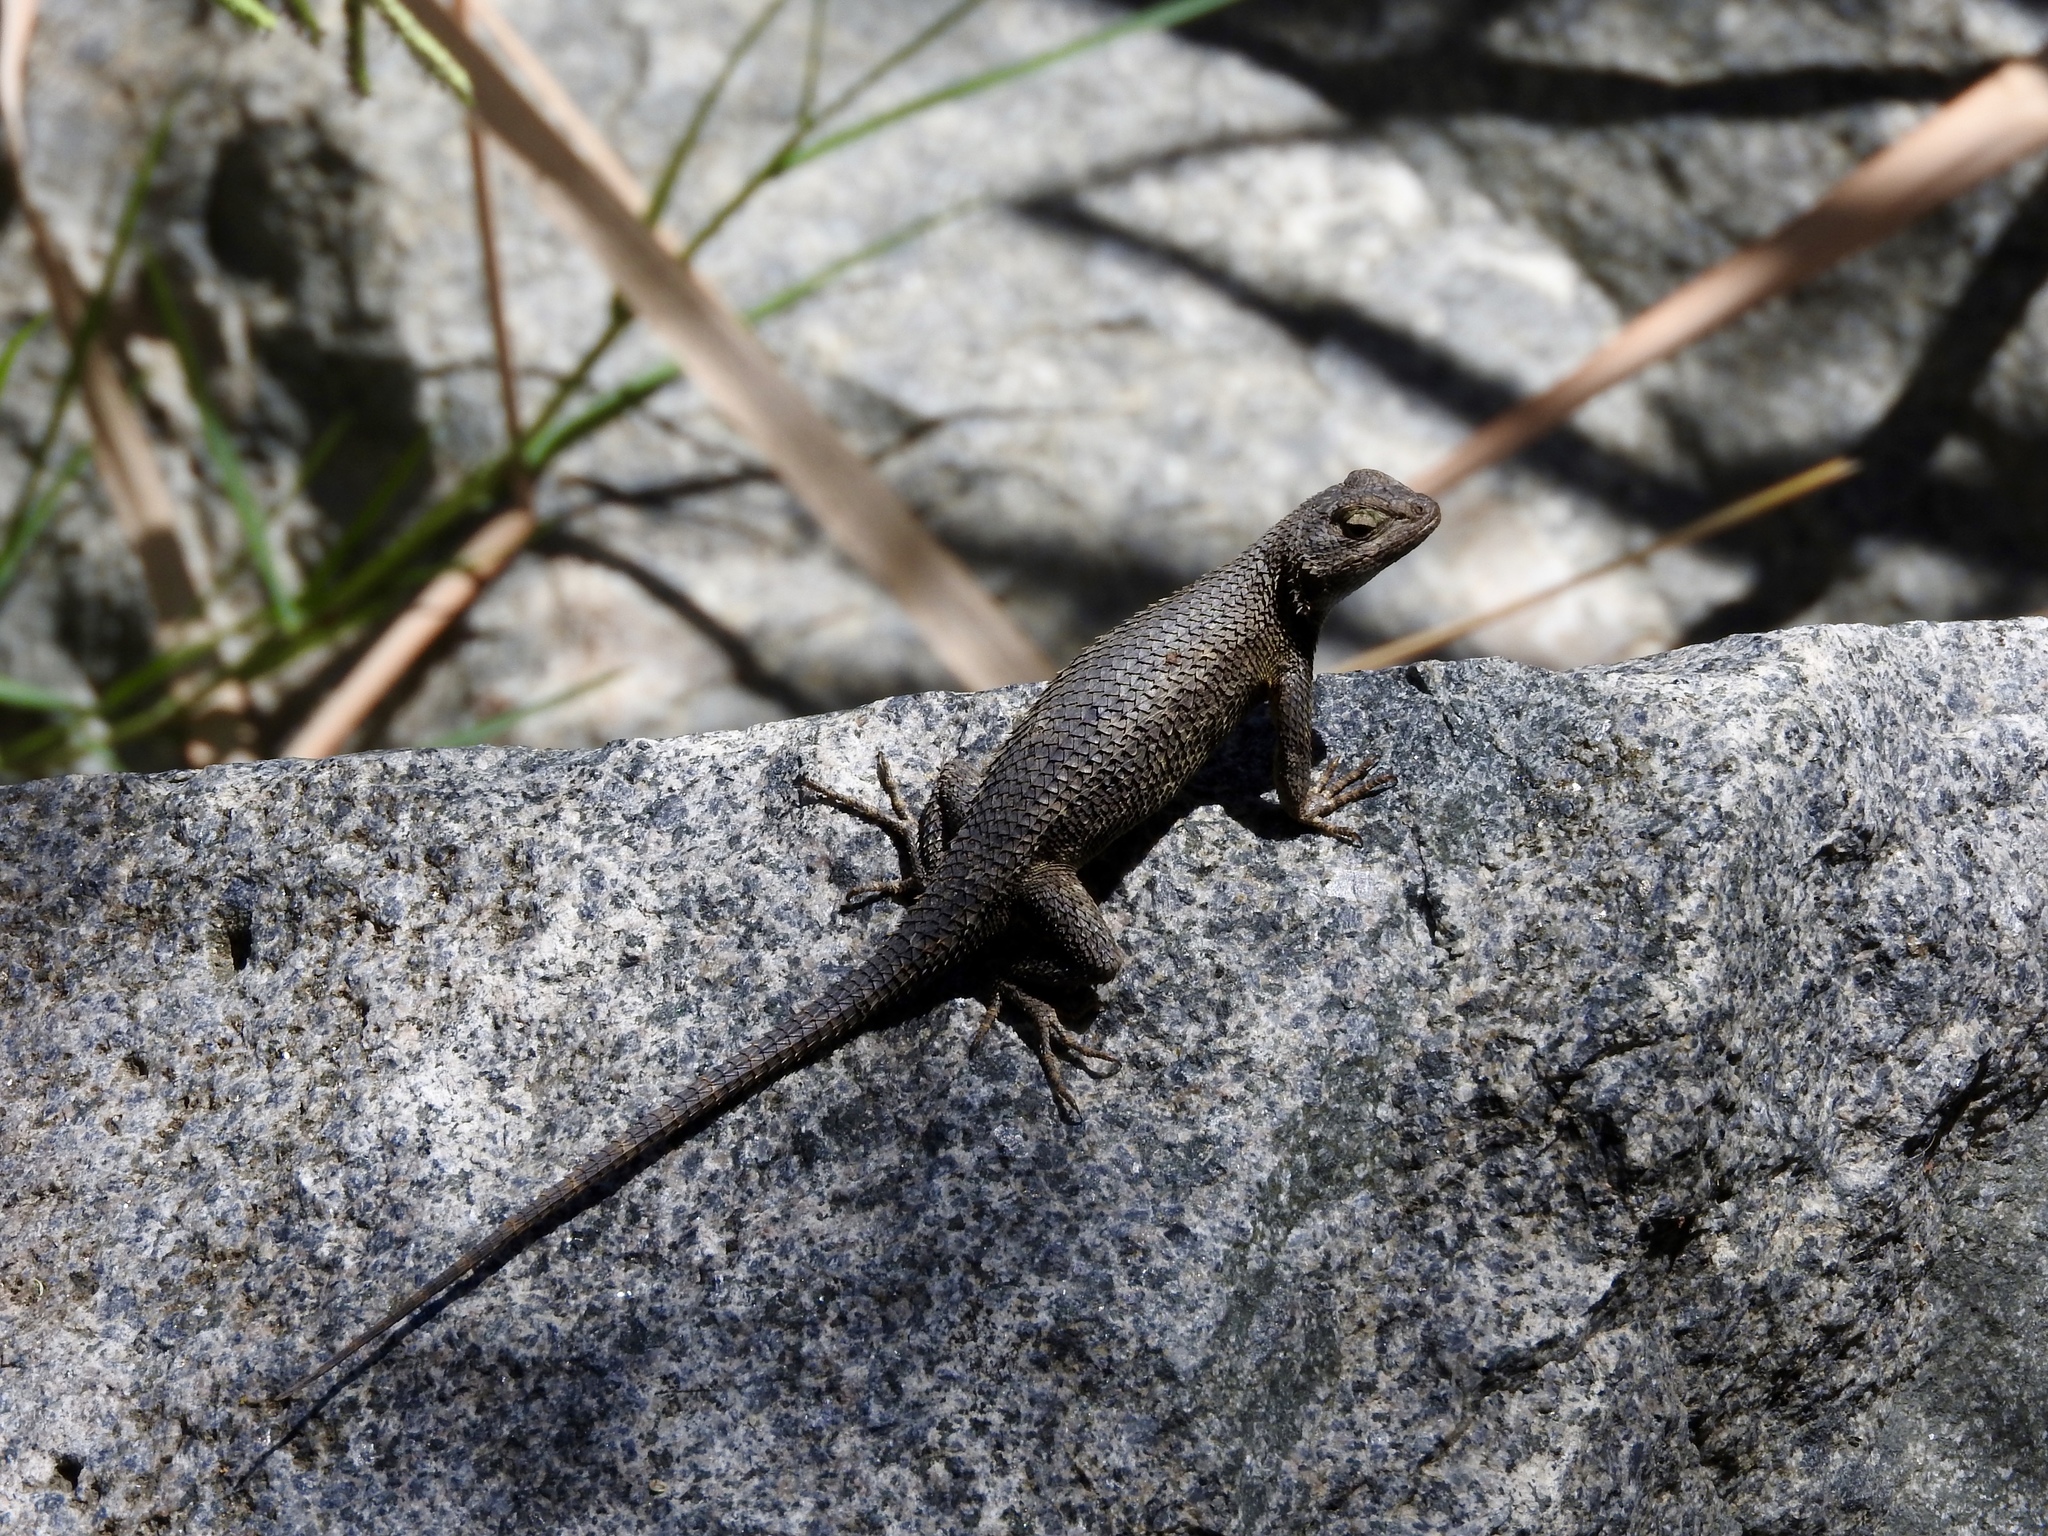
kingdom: Animalia
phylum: Chordata
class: Squamata
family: Phrynosomatidae
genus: Sceloporus
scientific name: Sceloporus occidentalis
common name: Western fence lizard
